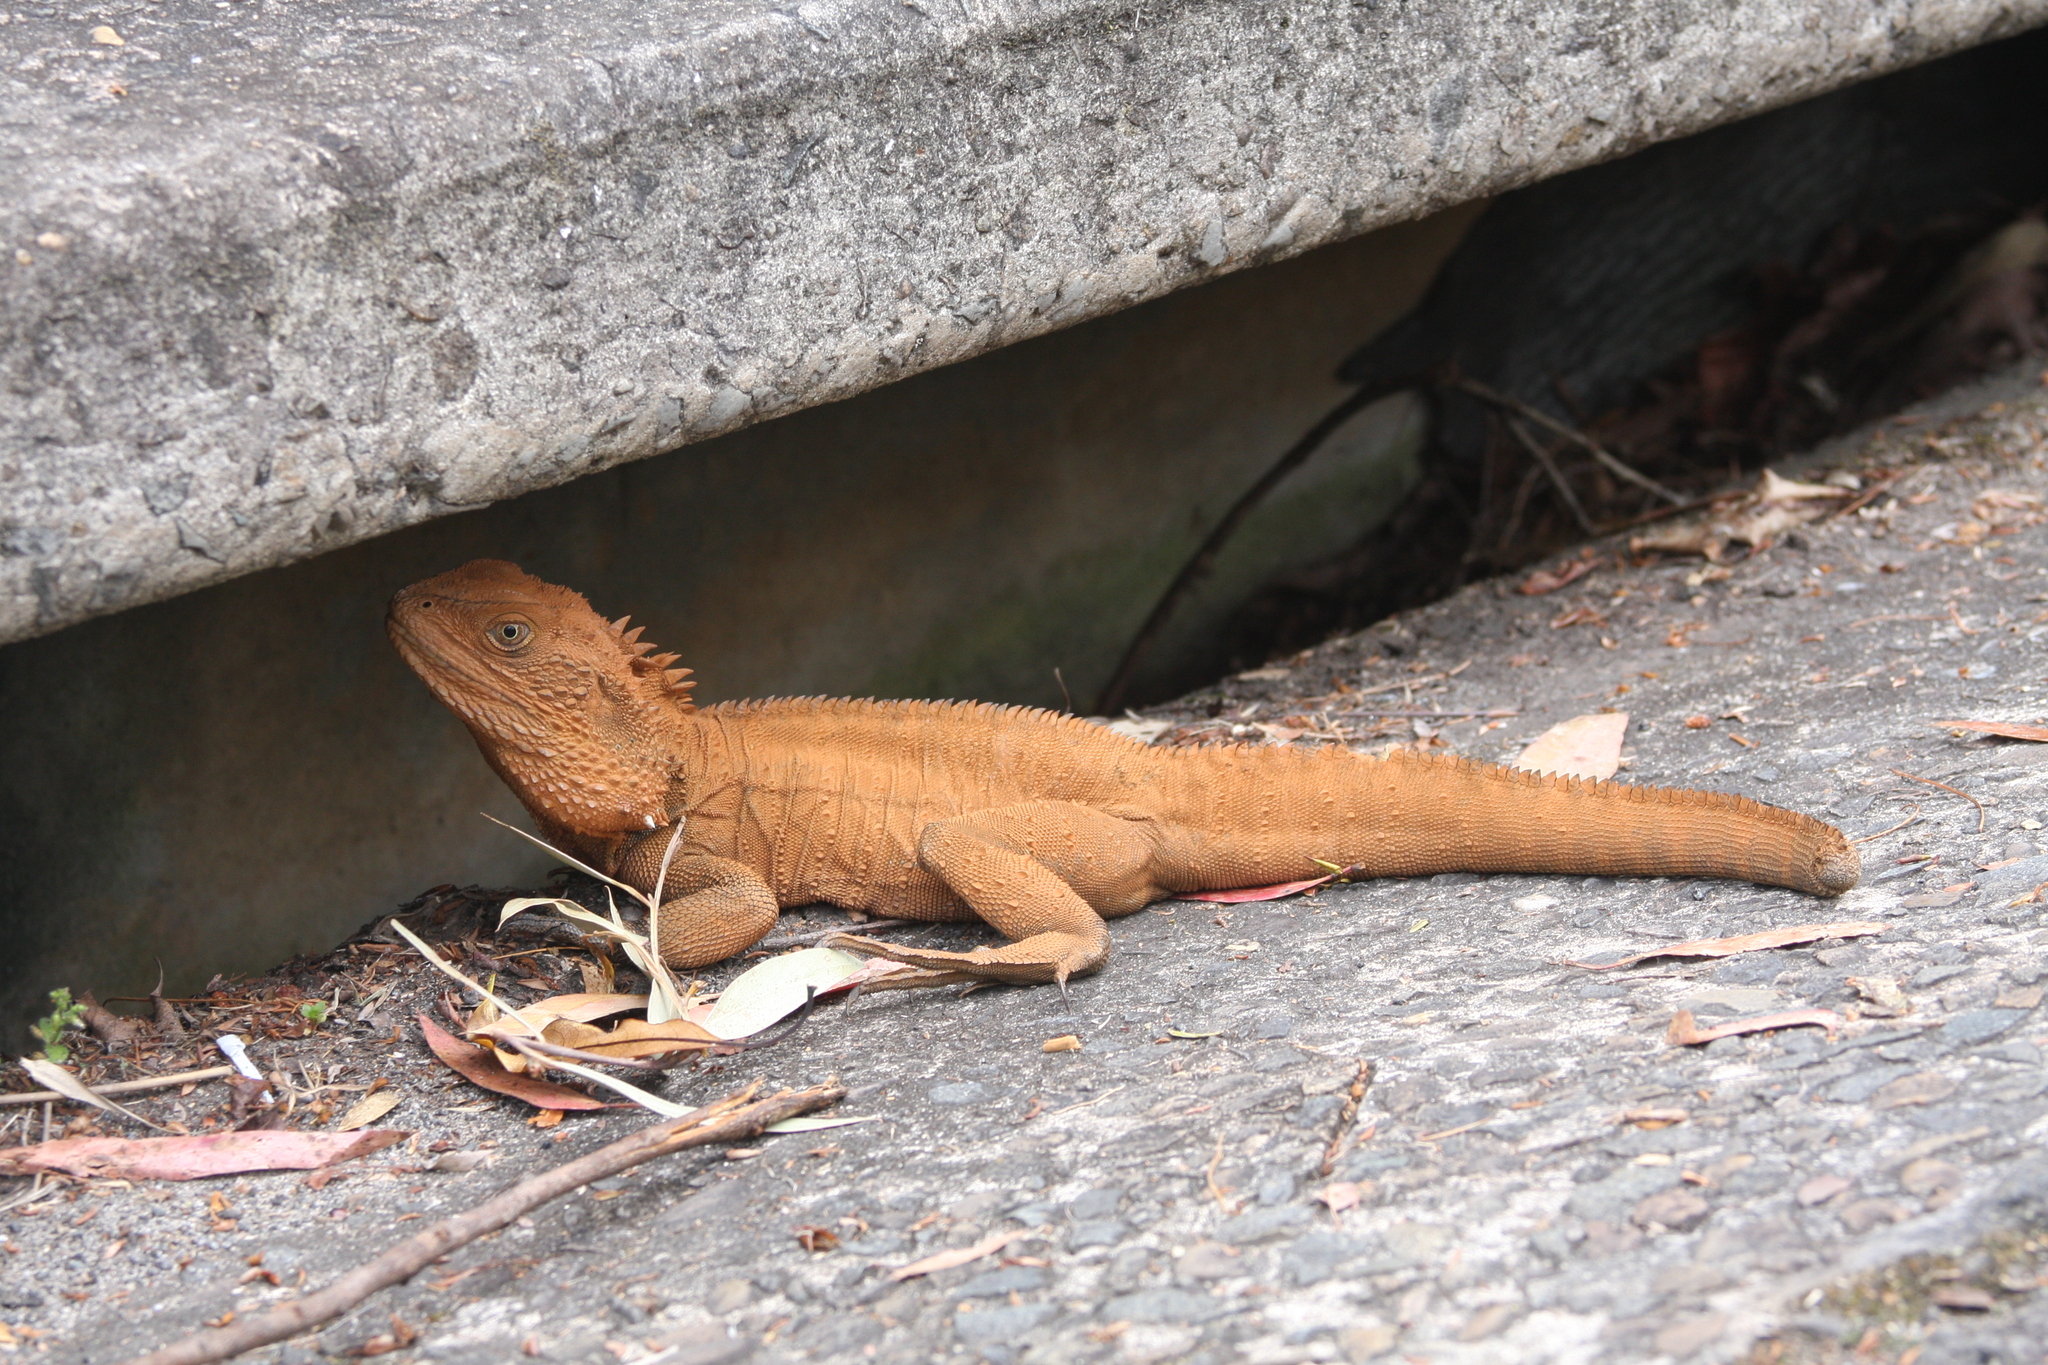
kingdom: Animalia
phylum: Chordata
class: Squamata
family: Agamidae
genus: Intellagama
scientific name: Intellagama lesueurii
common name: Eastern water dragon
